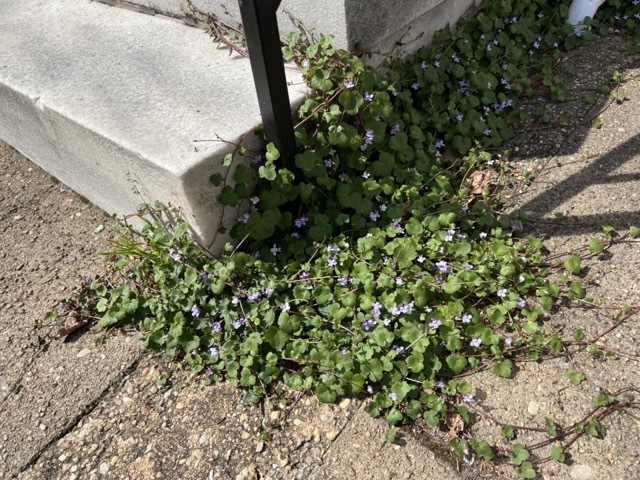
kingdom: Plantae
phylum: Tracheophyta
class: Magnoliopsida
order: Lamiales
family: Plantaginaceae
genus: Cymbalaria
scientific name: Cymbalaria muralis
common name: Ivy-leaved toadflax
